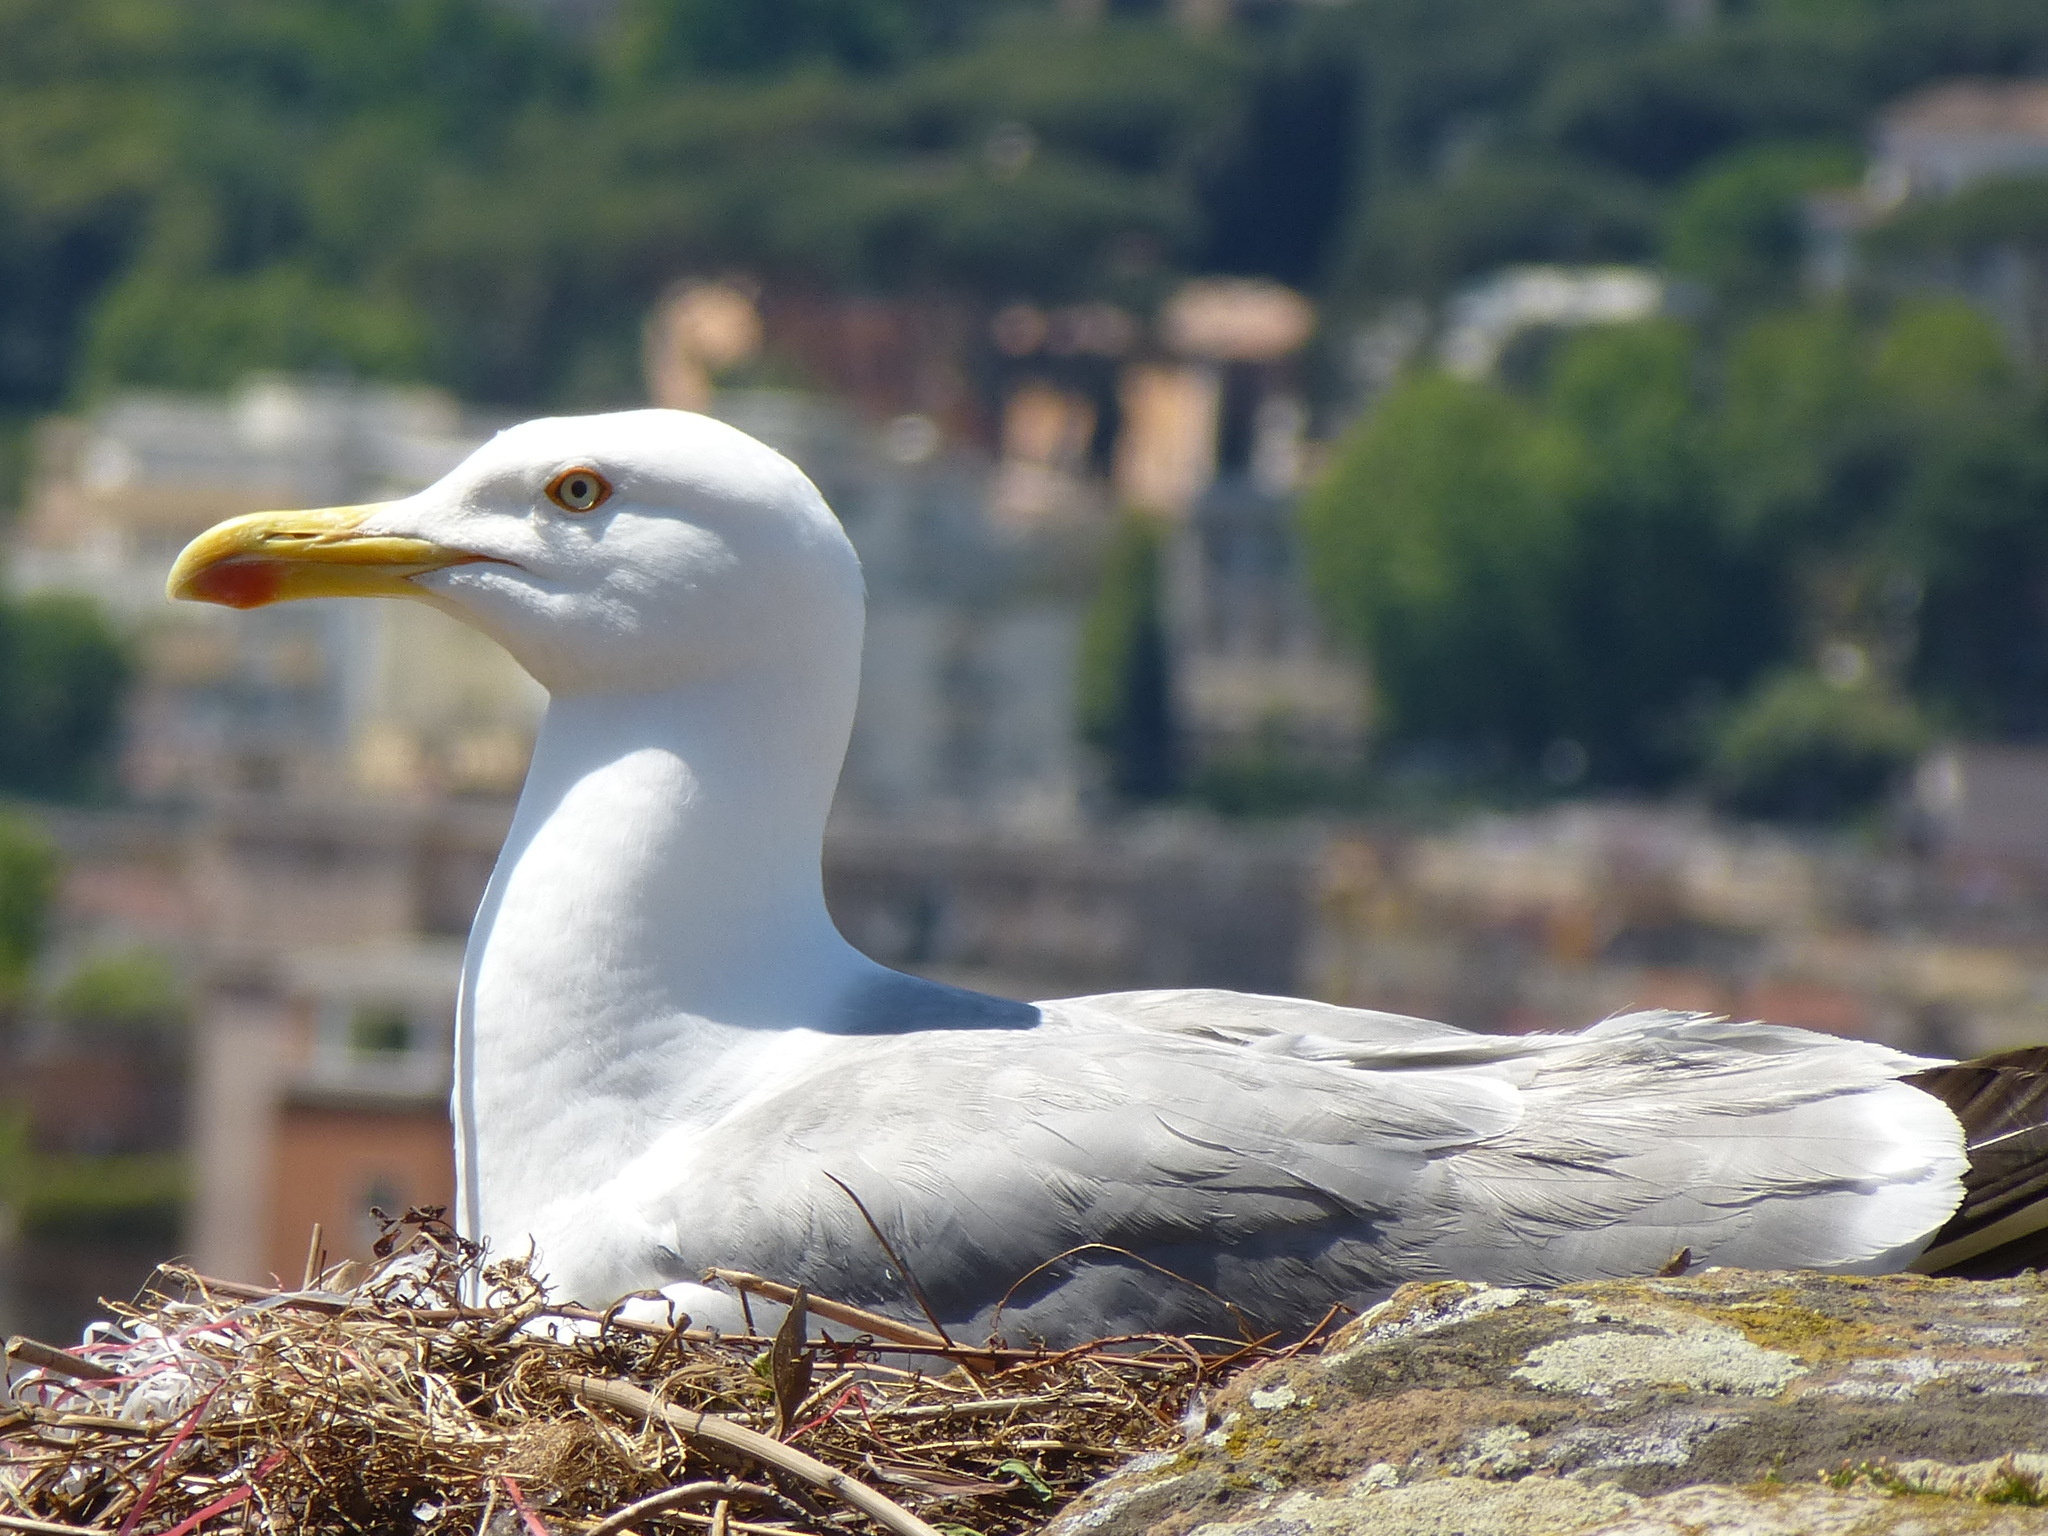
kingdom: Animalia
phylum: Chordata
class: Aves
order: Charadriiformes
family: Laridae
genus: Larus
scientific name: Larus michahellis
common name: Yellow-legged gull
